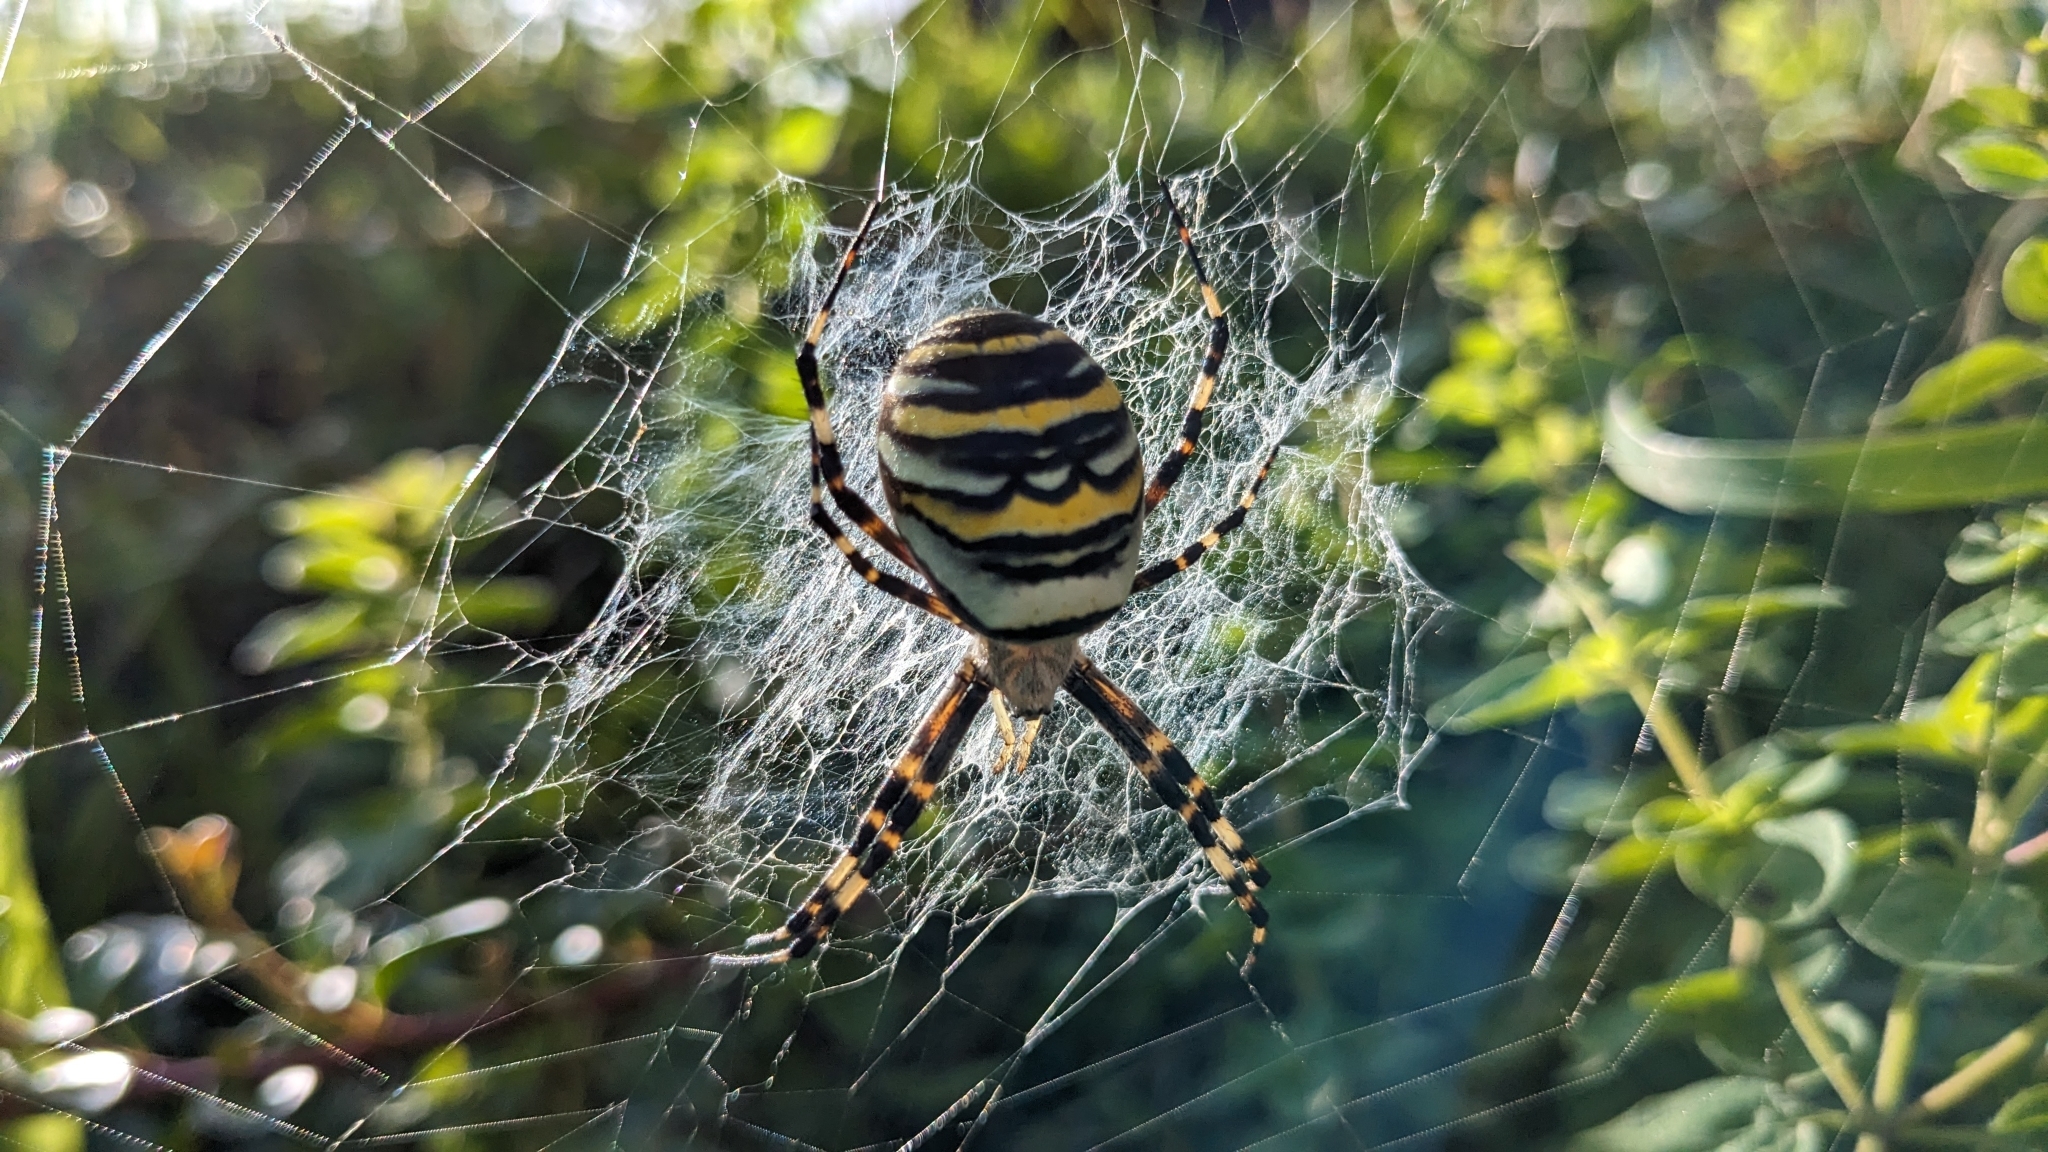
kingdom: Animalia
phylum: Arthropoda
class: Arachnida
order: Araneae
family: Araneidae
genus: Argiope
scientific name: Argiope bruennichi
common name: Wasp spider
